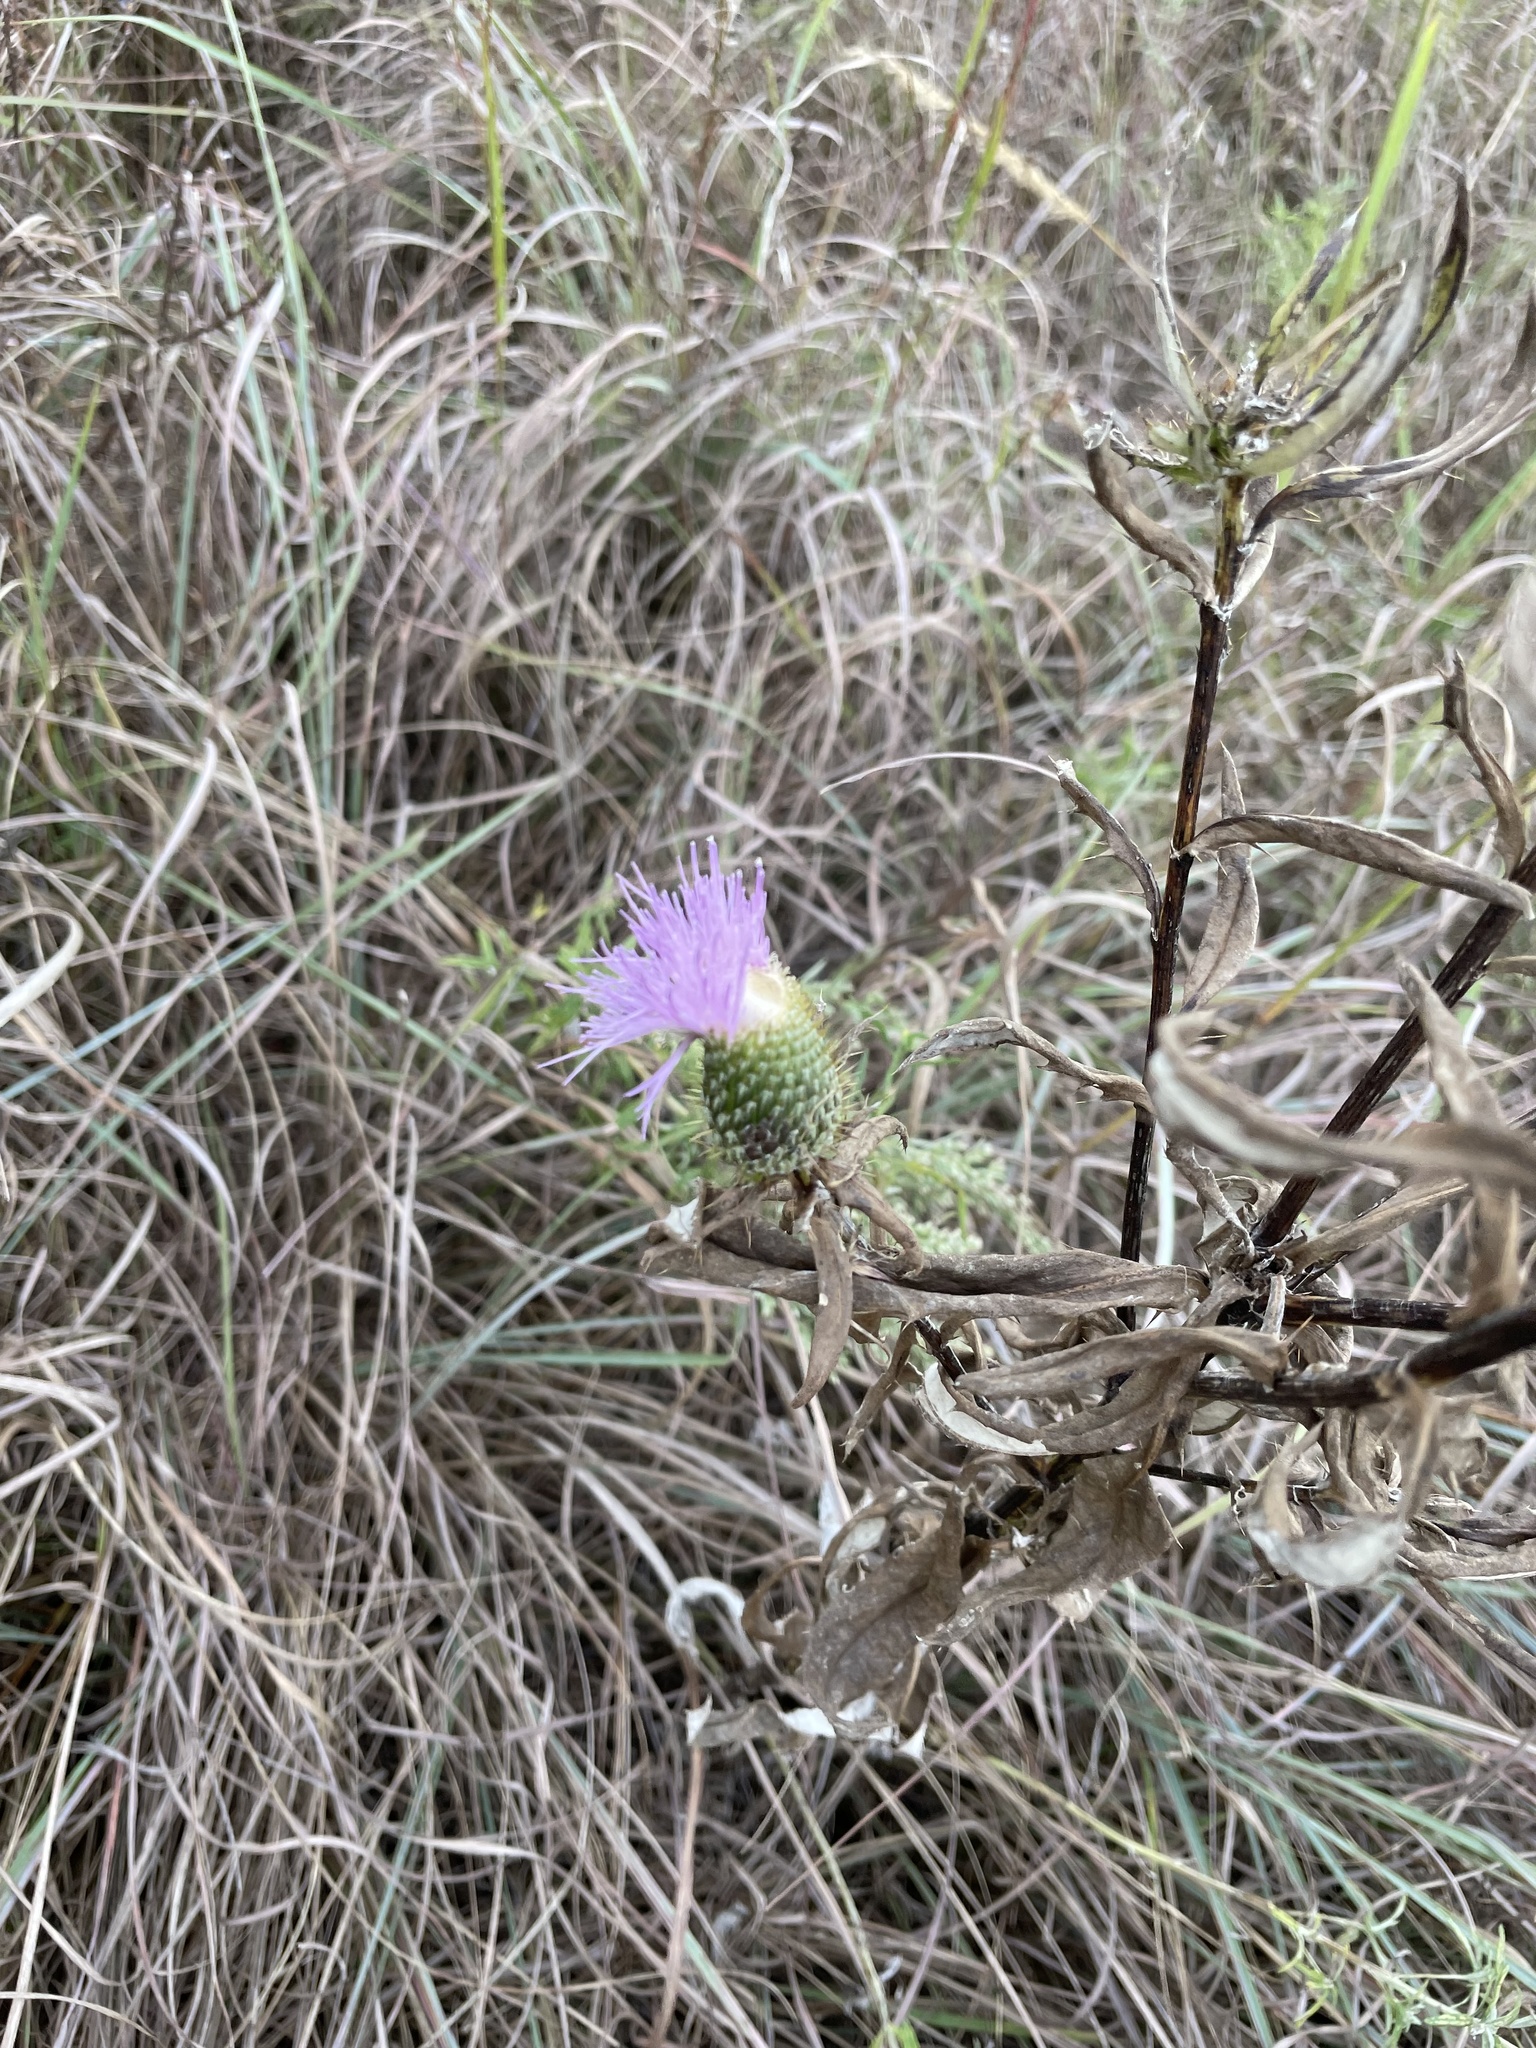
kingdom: Plantae
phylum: Tracheophyta
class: Magnoliopsida
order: Asterales
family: Asteraceae
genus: Cirsium
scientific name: Cirsium altissimum
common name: Roadside thistle
